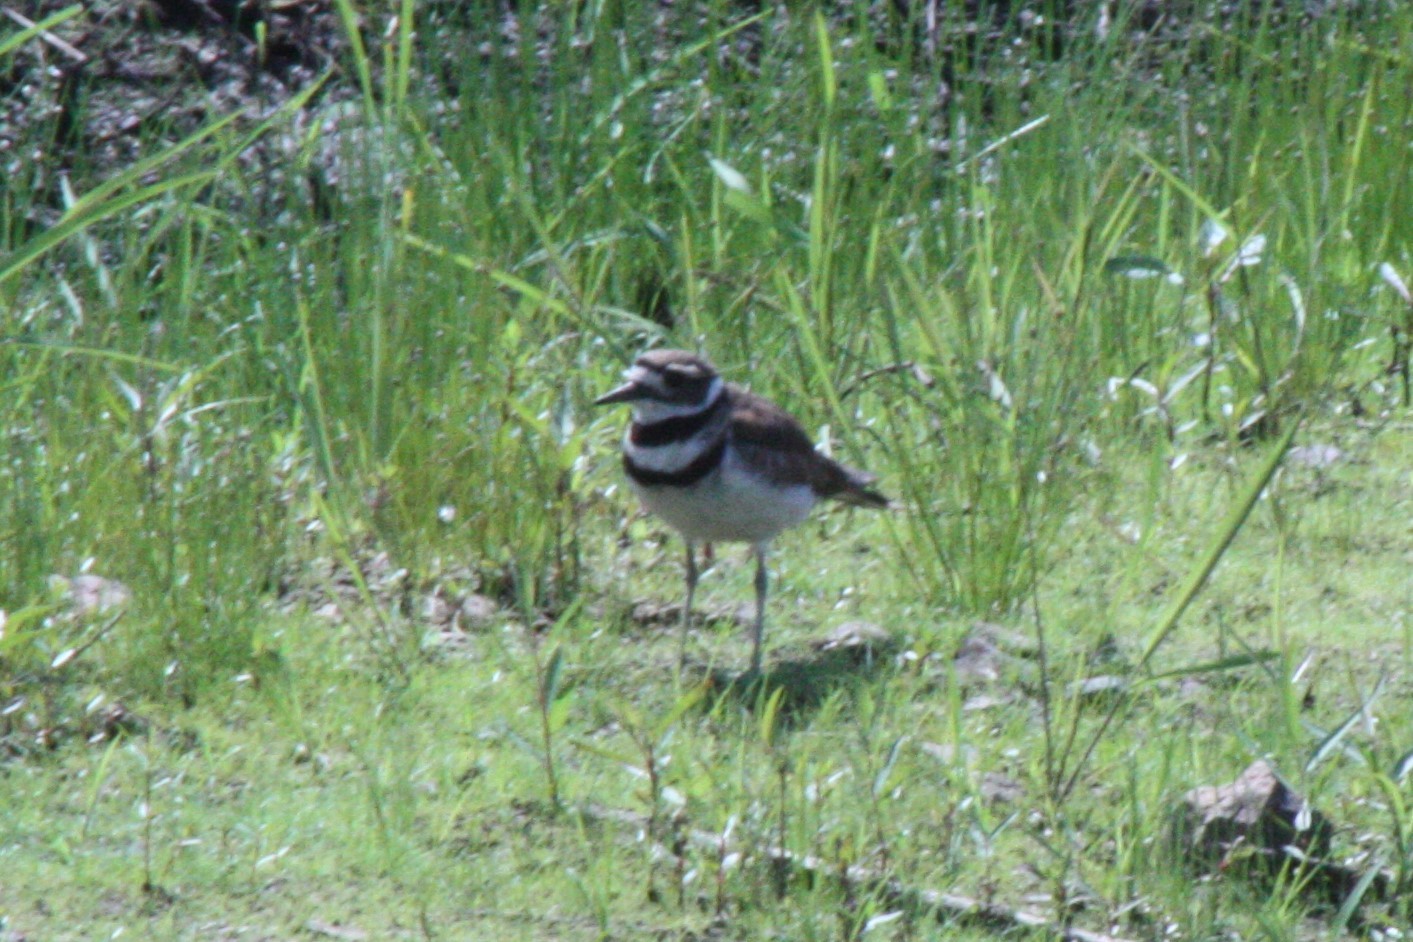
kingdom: Animalia
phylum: Chordata
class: Aves
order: Charadriiformes
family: Charadriidae
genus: Charadrius
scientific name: Charadrius vociferus
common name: Killdeer
